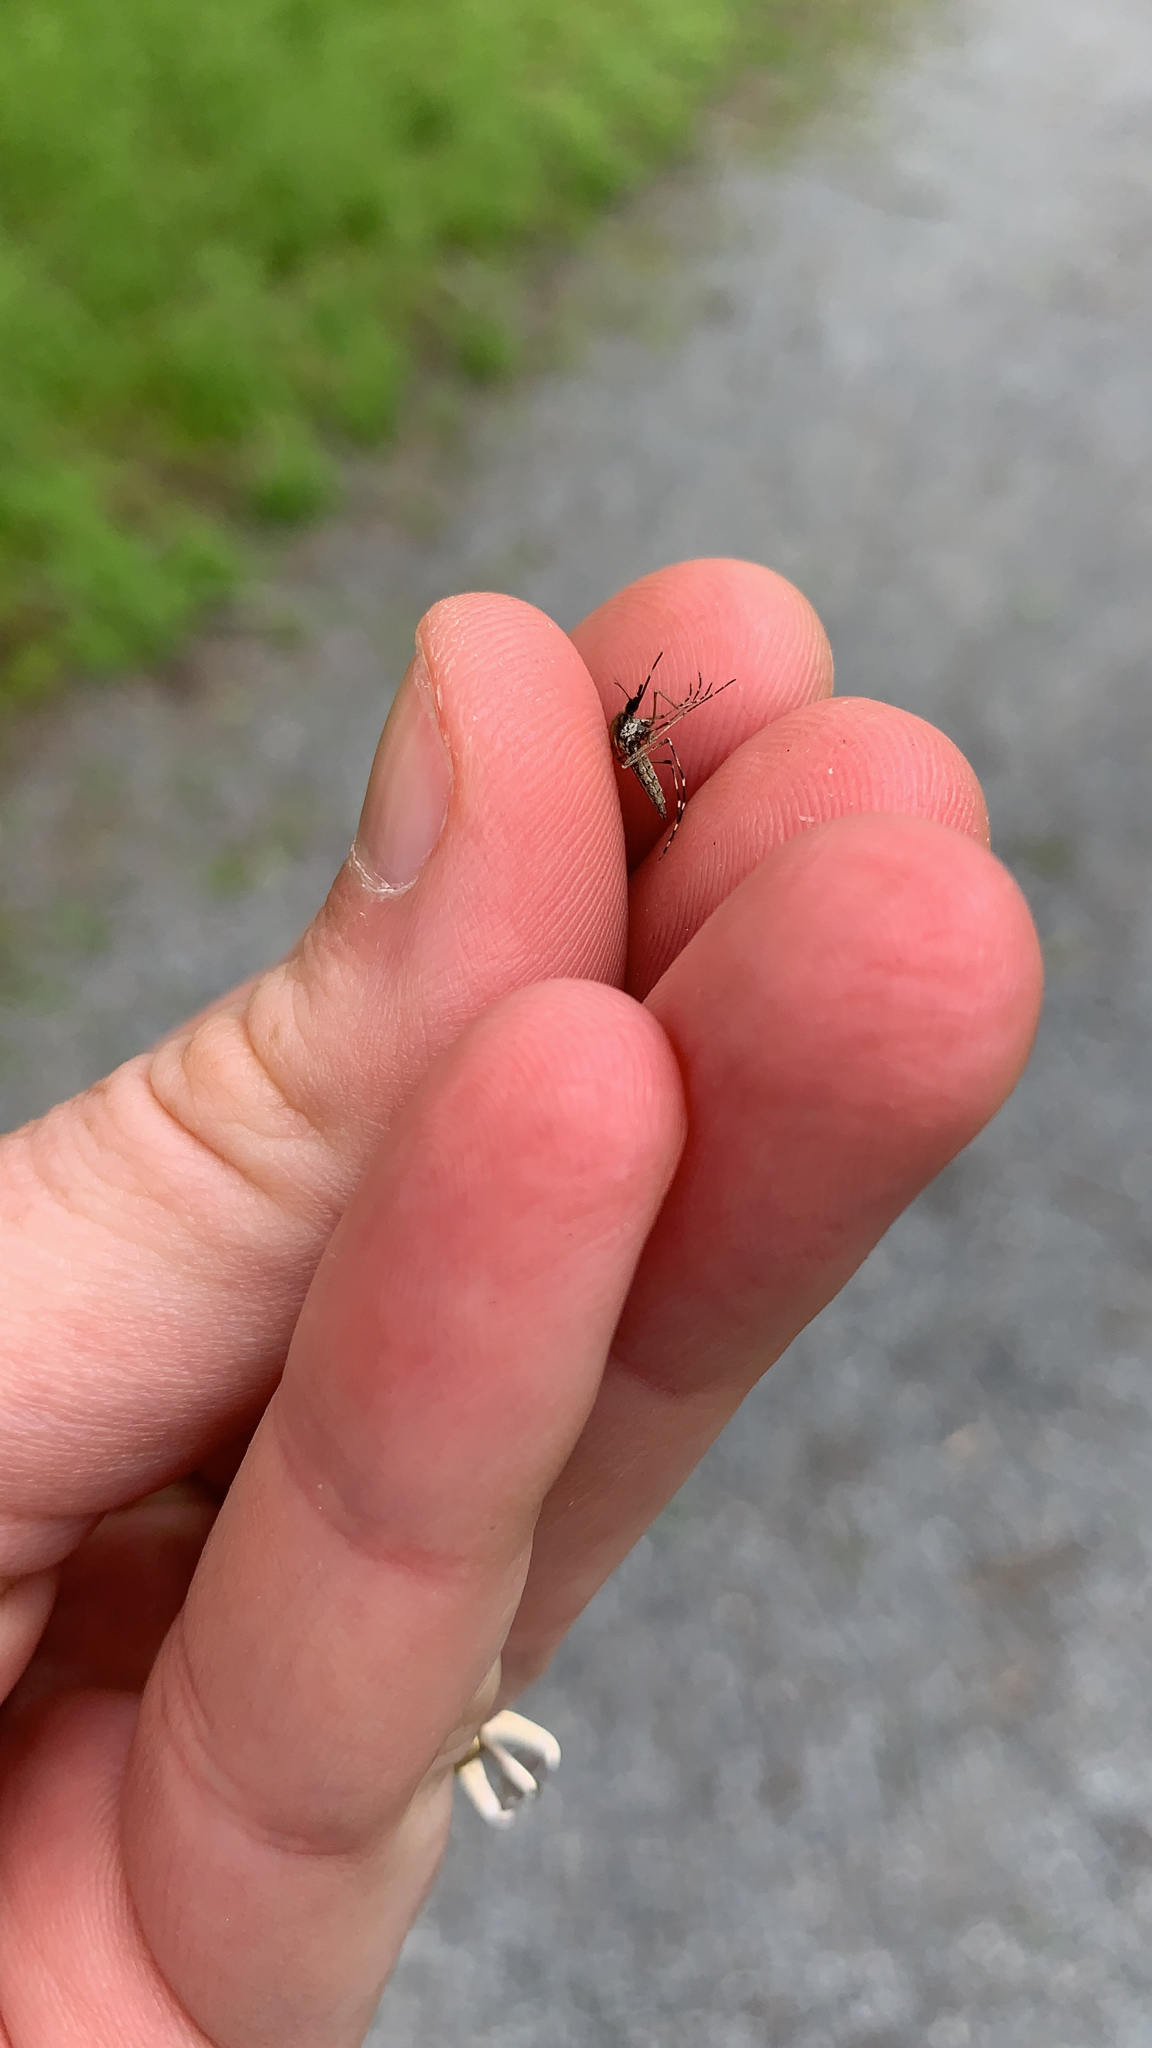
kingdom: Animalia
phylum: Arthropoda
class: Insecta
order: Diptera
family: Culicidae
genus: Aedes
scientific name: Aedes sollicitans
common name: Saltmarsh mosquito
